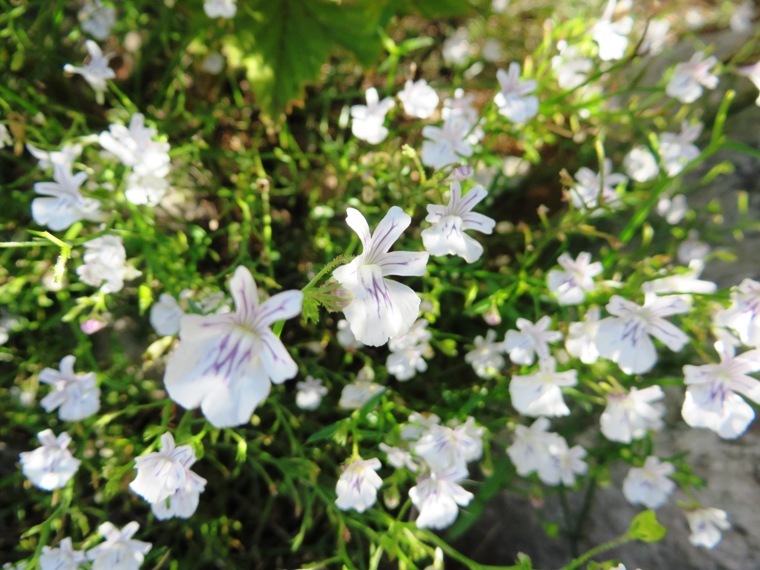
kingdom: Plantae
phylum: Tracheophyta
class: Magnoliopsida
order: Lamiales
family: Scrophulariaceae
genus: Nemesia
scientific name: Nemesia diffusa
